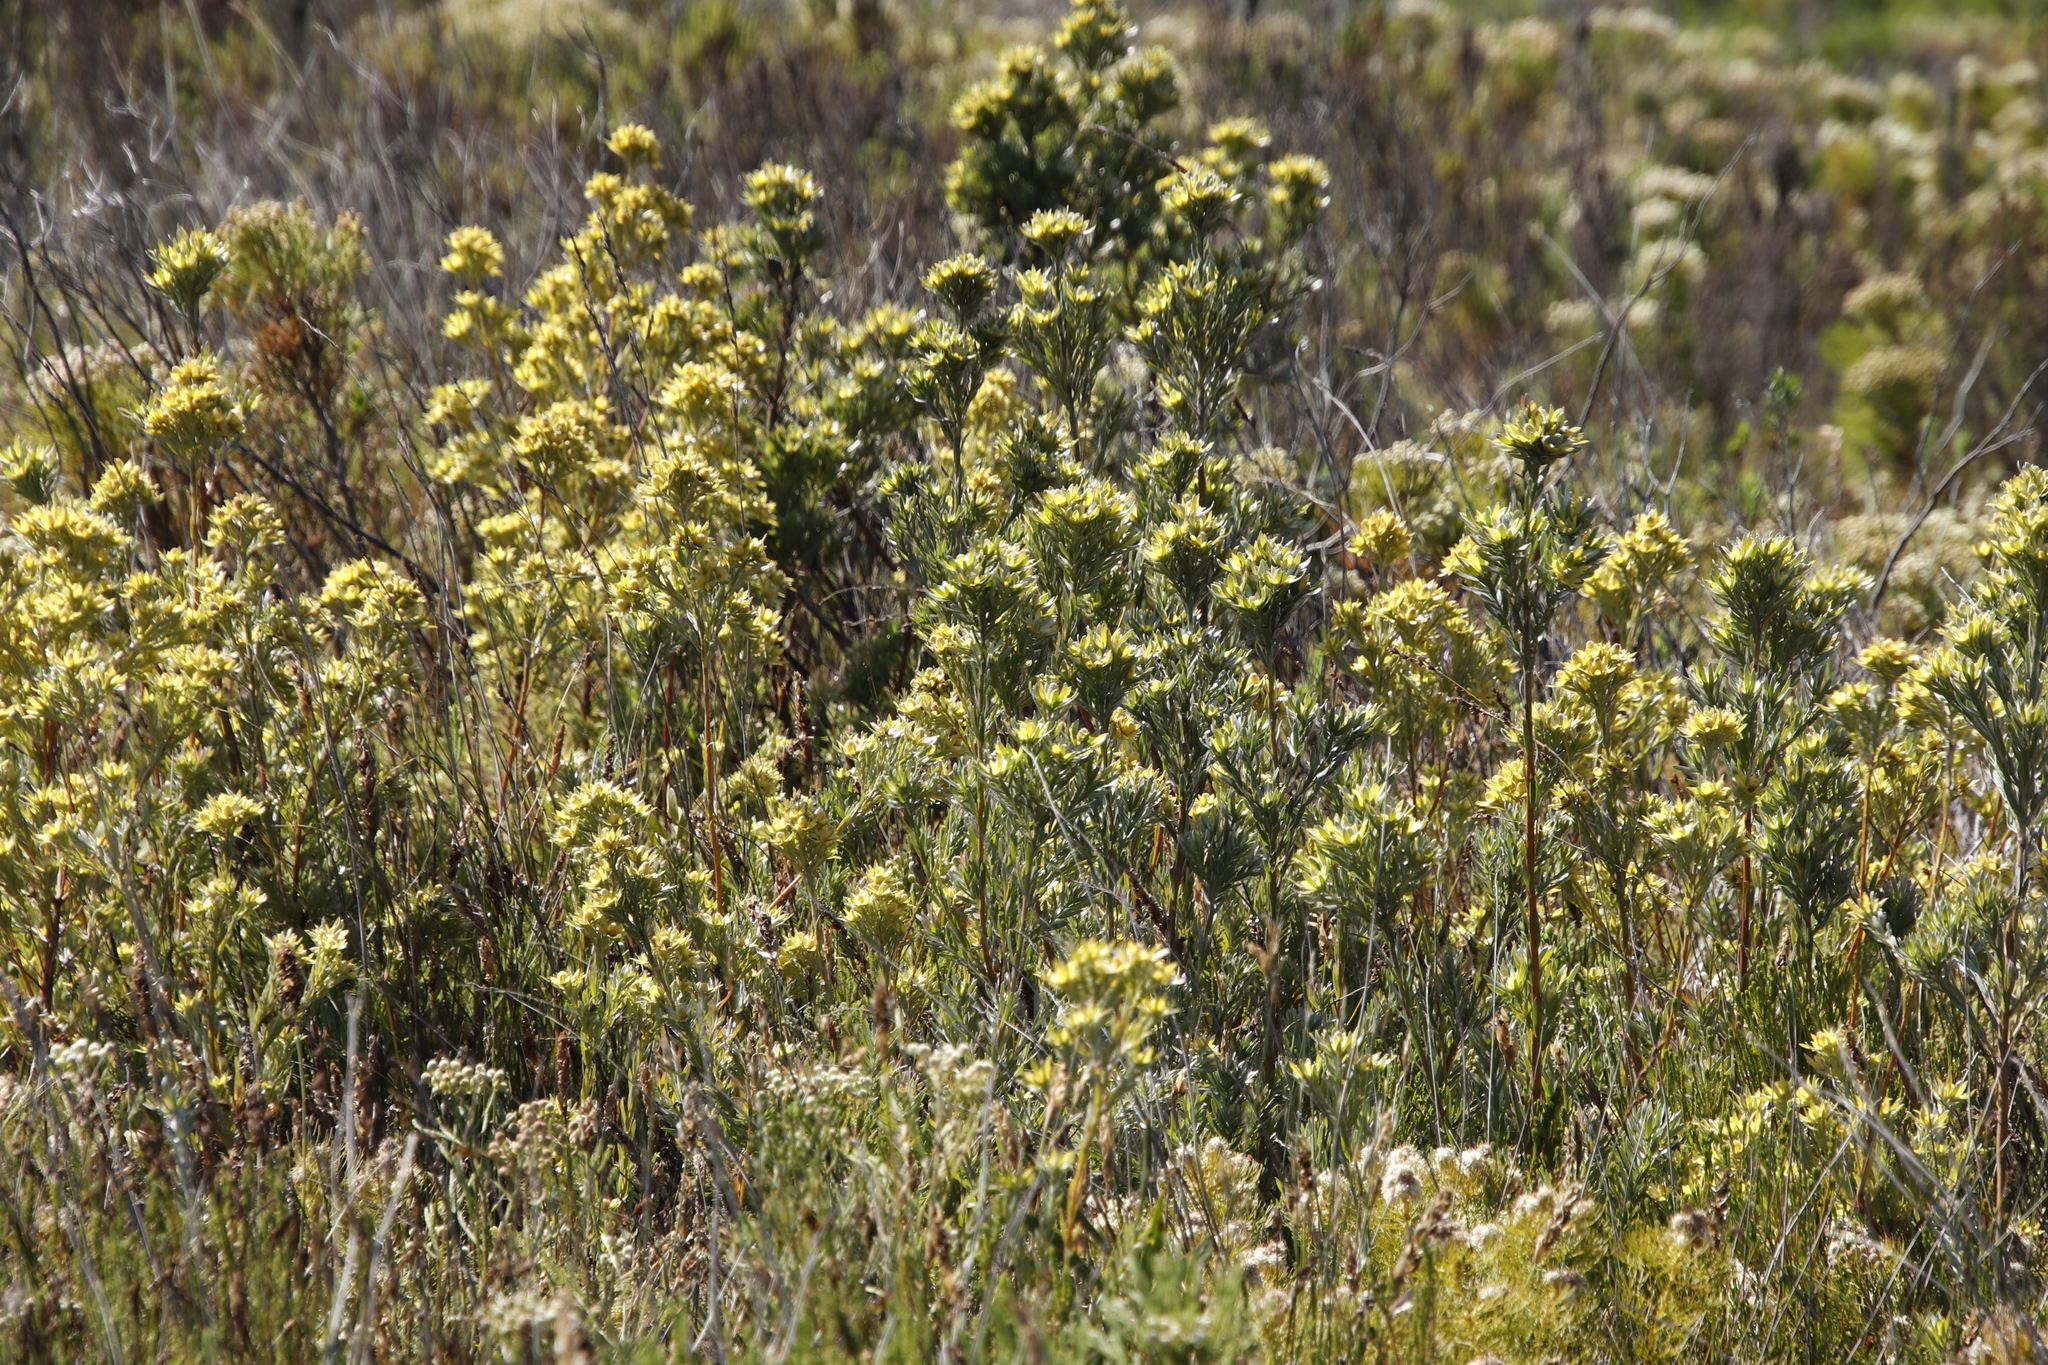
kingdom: Plantae
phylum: Tracheophyta
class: Magnoliopsida
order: Proteales
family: Proteaceae
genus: Leucadendron
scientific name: Leucadendron floridum
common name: Flats conebush
